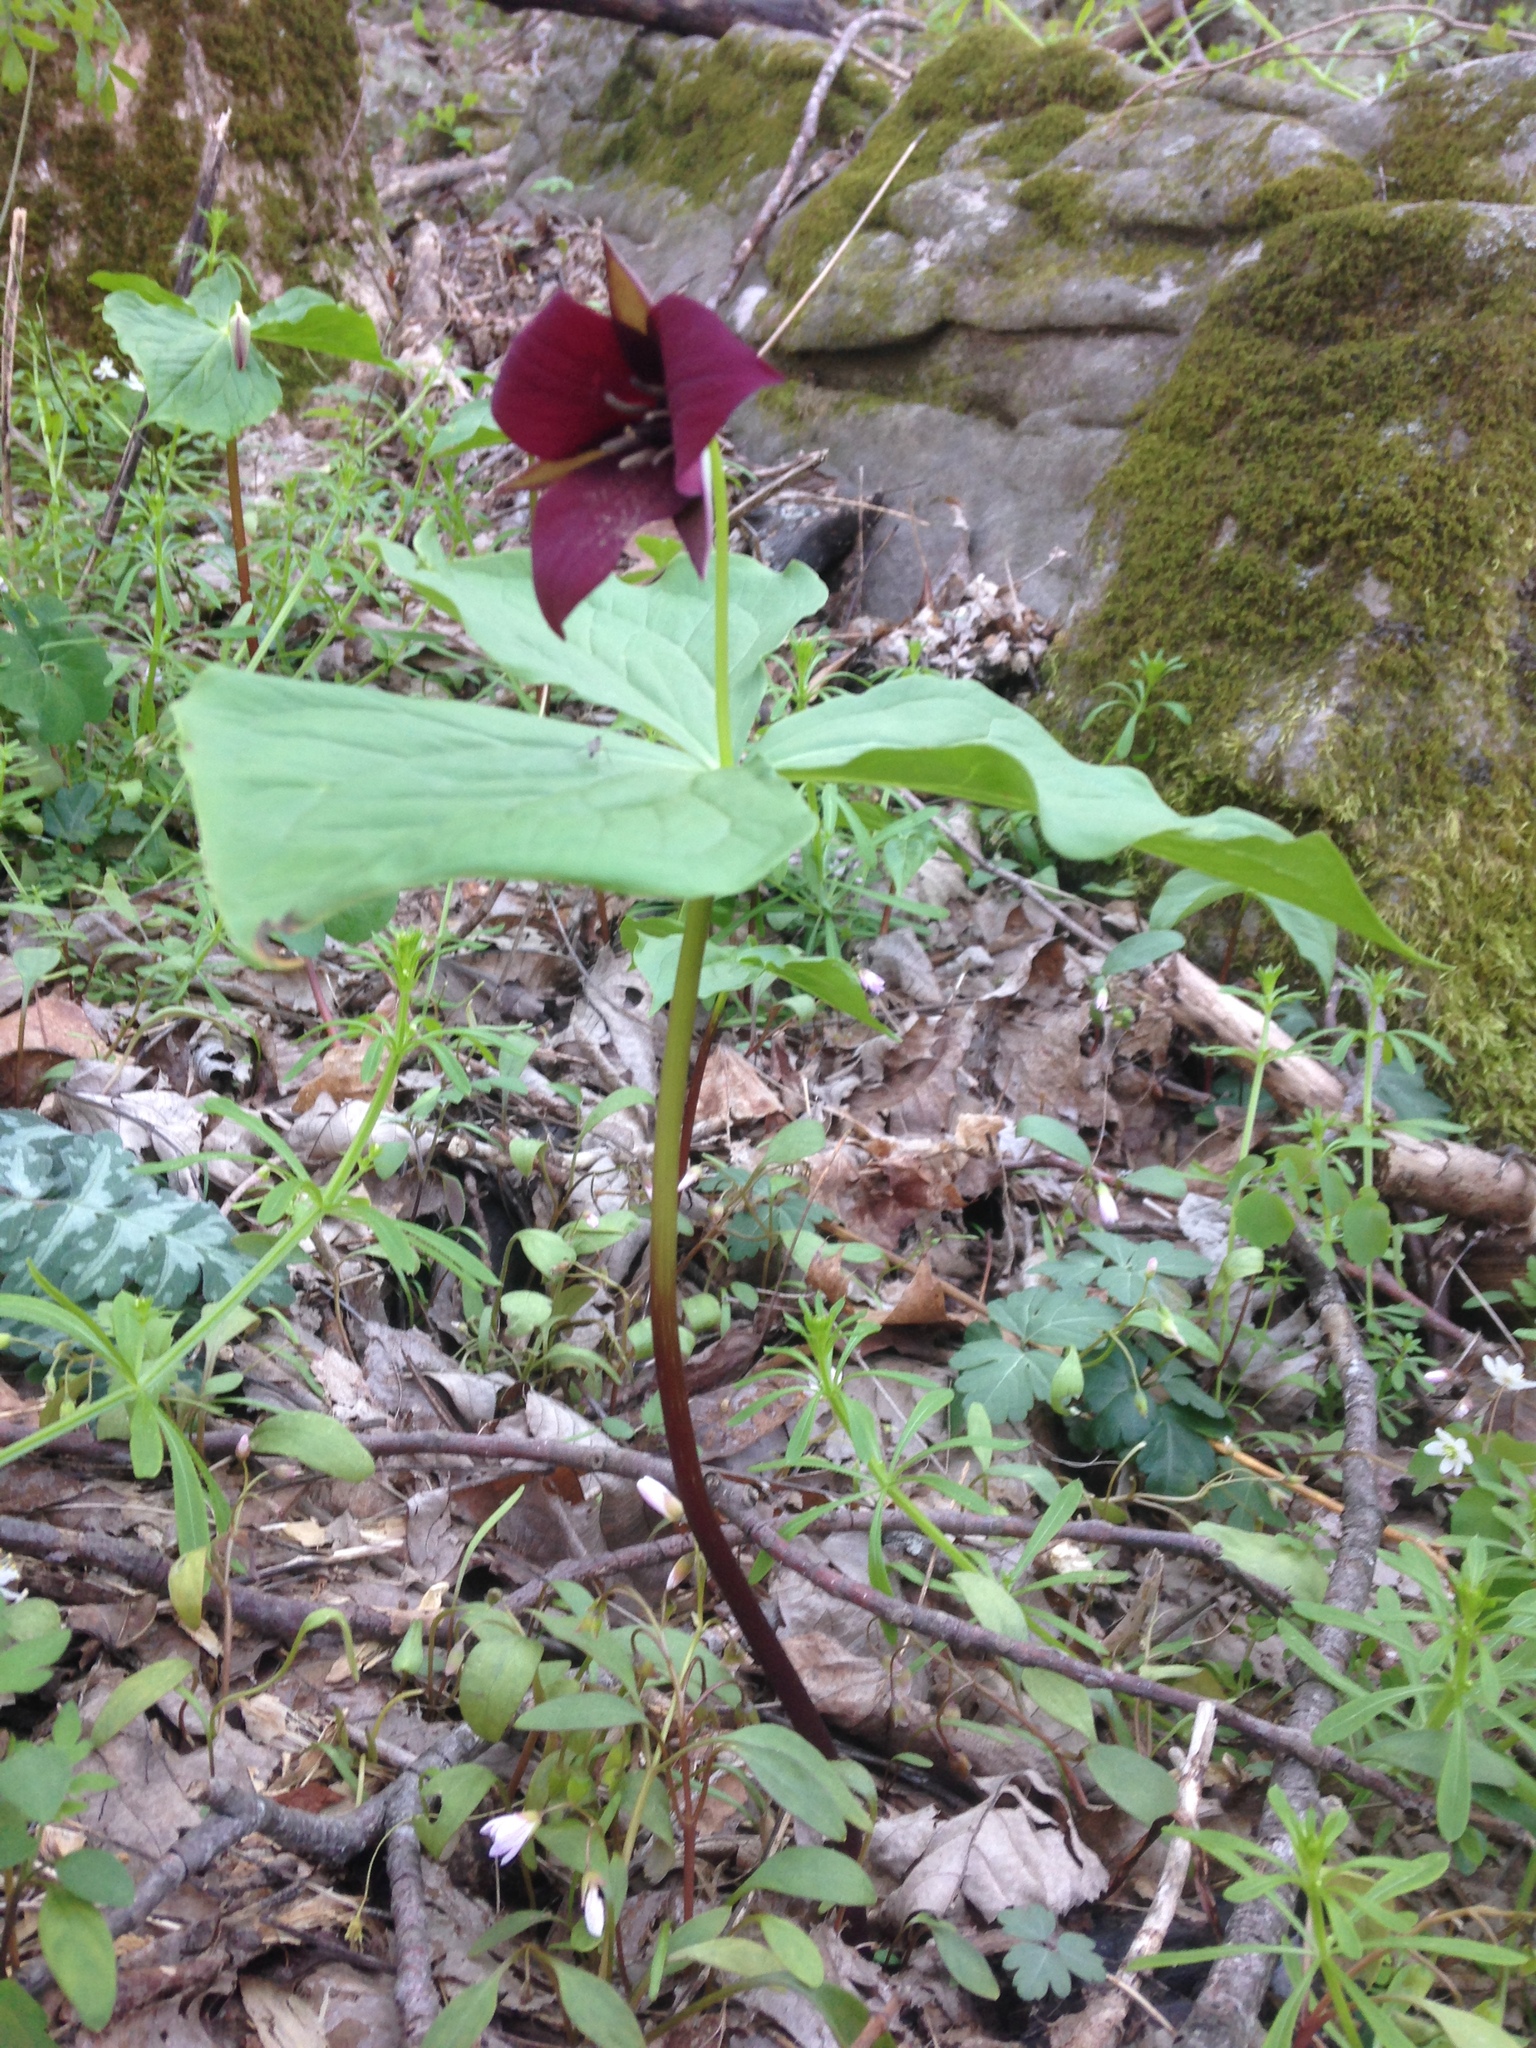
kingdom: Plantae
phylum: Tracheophyta
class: Liliopsida
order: Liliales
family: Melanthiaceae
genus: Trillium
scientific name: Trillium sulcatum
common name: Barksdale trillium
